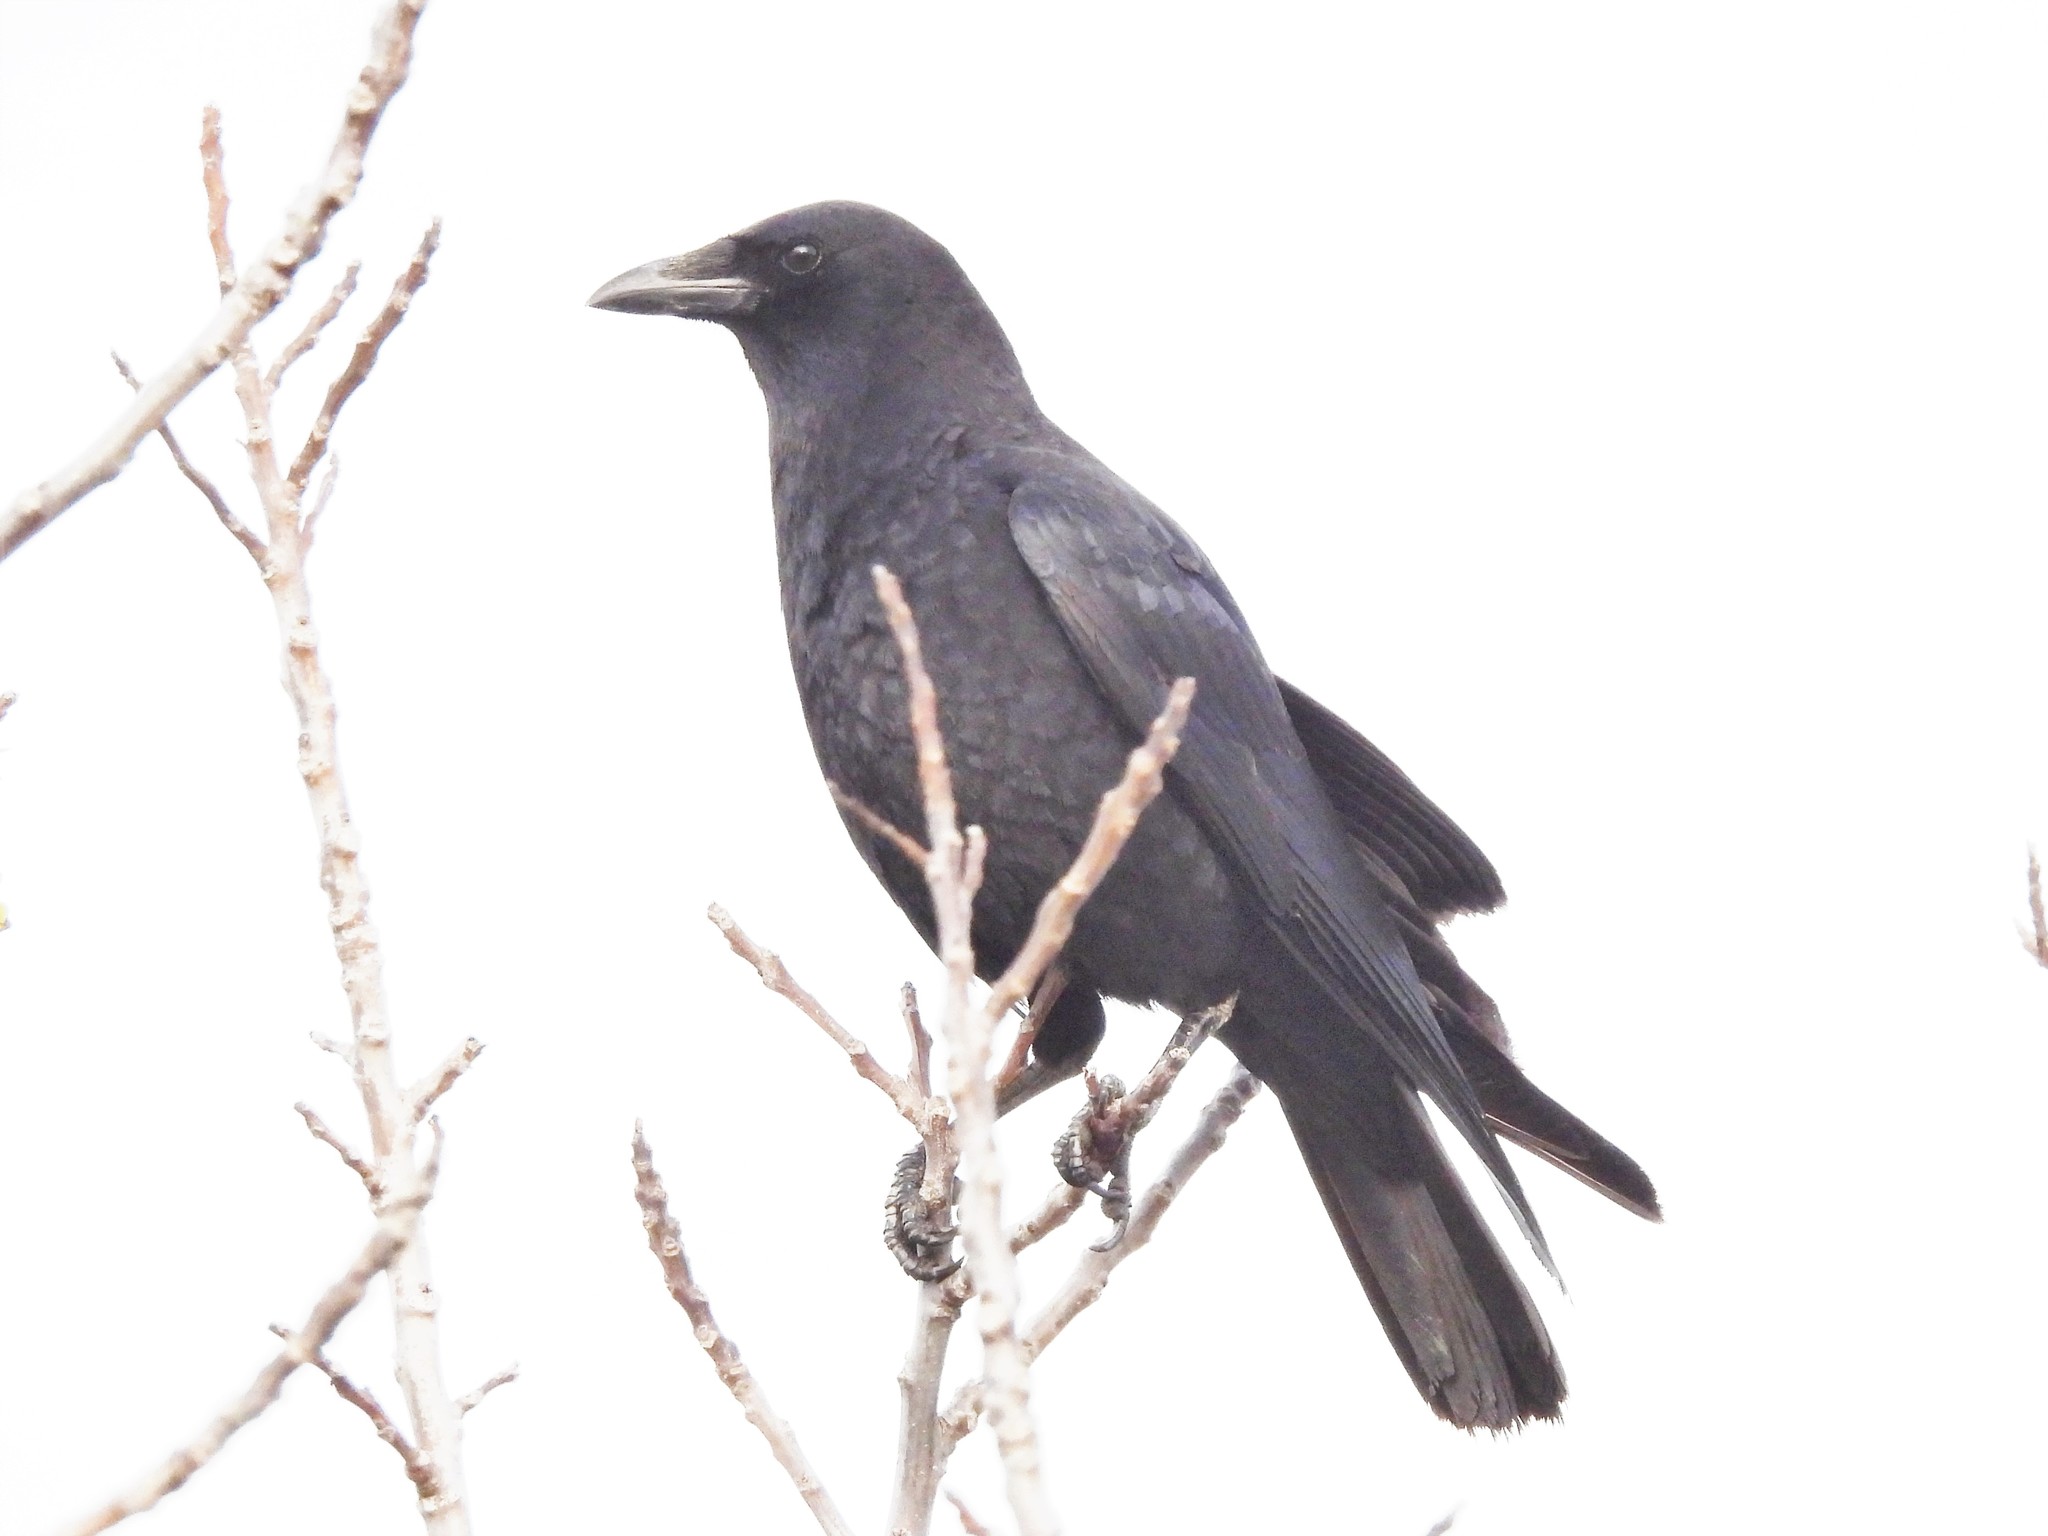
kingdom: Animalia
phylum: Chordata
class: Aves
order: Passeriformes
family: Corvidae
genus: Corvus
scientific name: Corvus brachyrhynchos
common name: American crow
